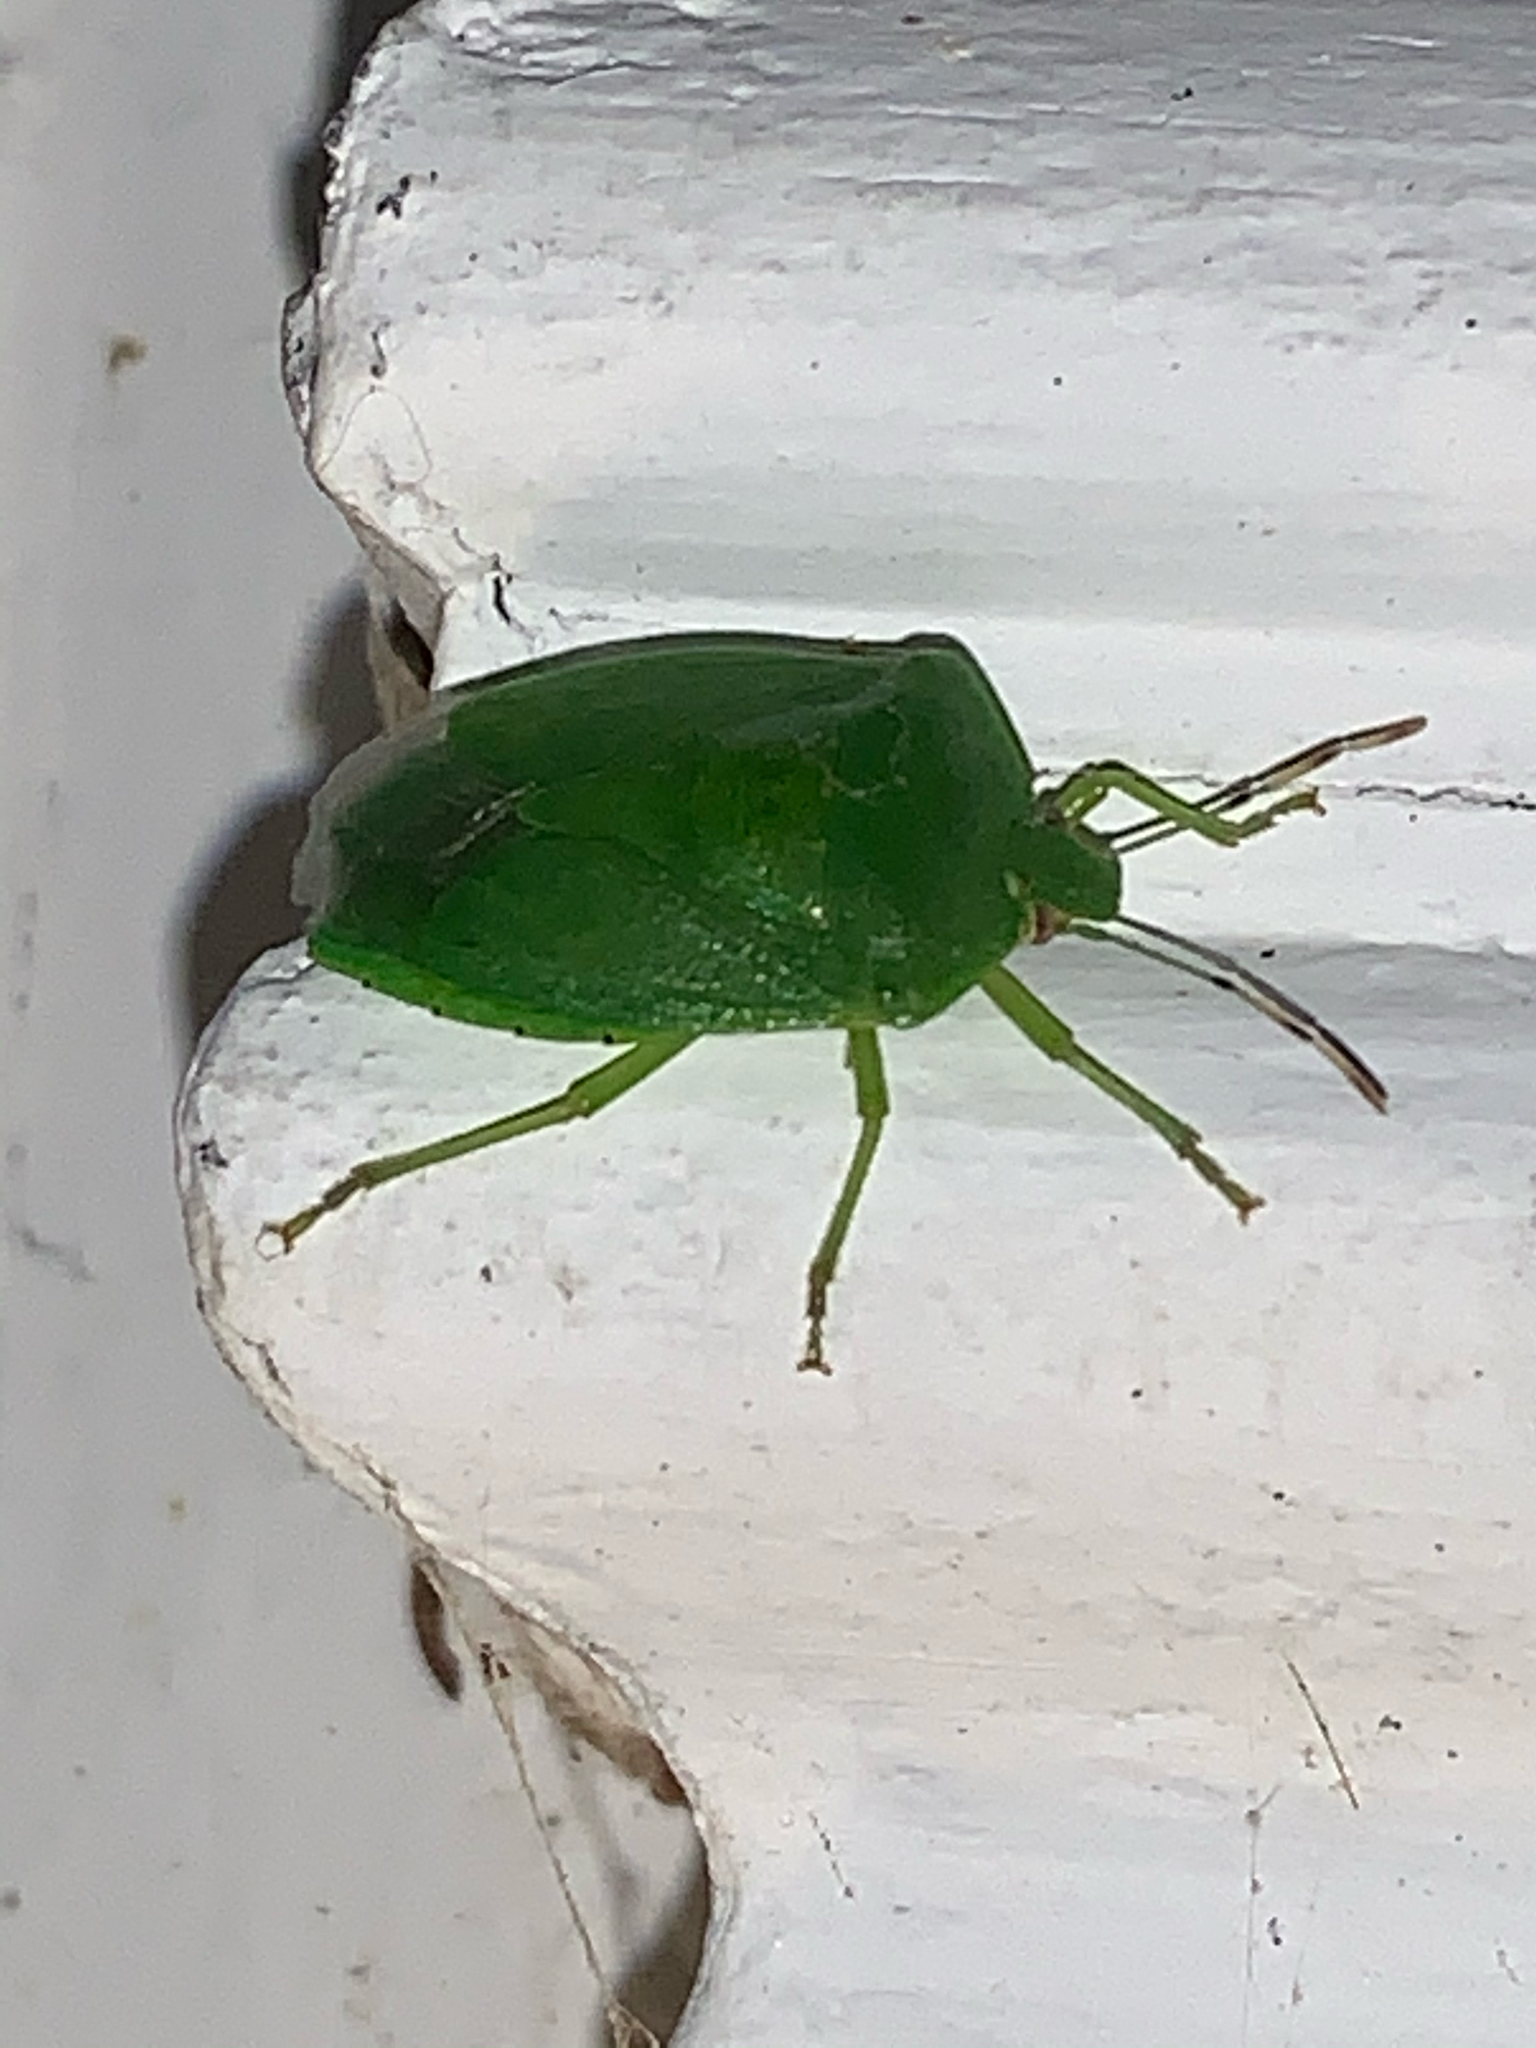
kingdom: Animalia
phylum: Arthropoda
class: Insecta
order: Hemiptera
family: Pentatomidae
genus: Chinavia
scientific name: Chinavia hilaris
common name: Green stink bug
